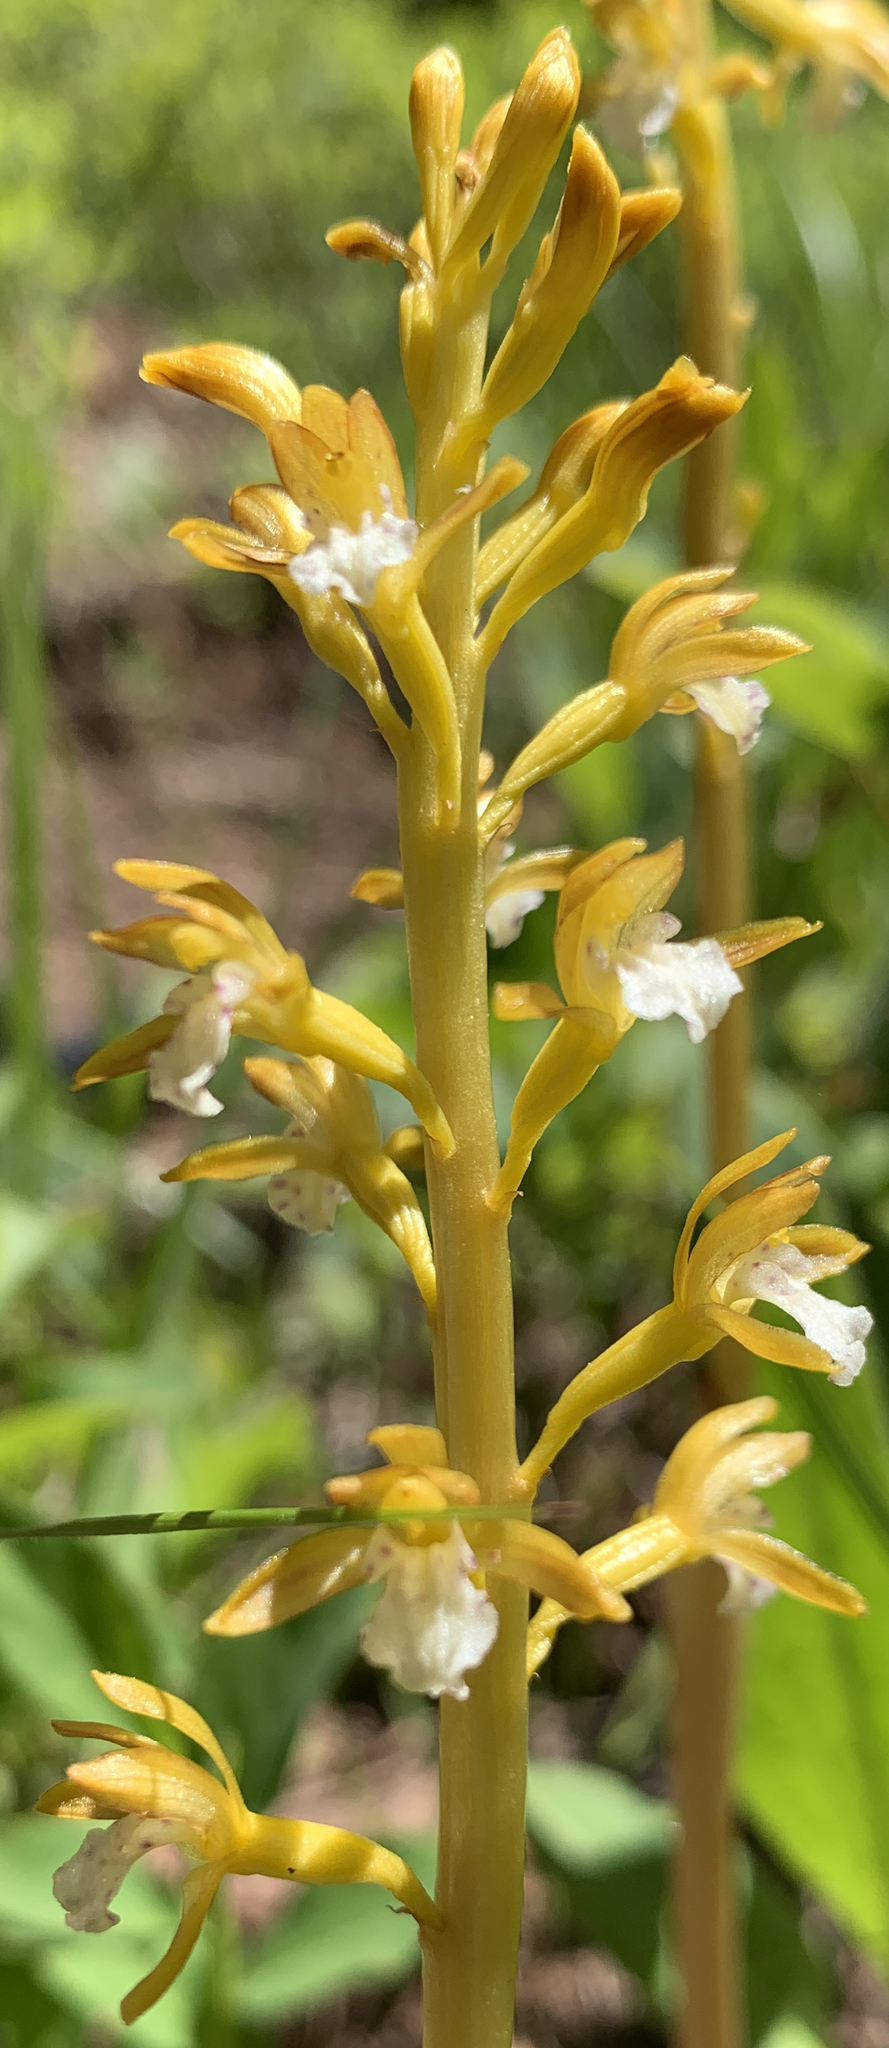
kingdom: Plantae
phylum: Tracheophyta
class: Liliopsida
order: Asparagales
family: Orchidaceae
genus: Corallorhiza
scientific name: Corallorhiza maculata
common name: Spotted coralroot
